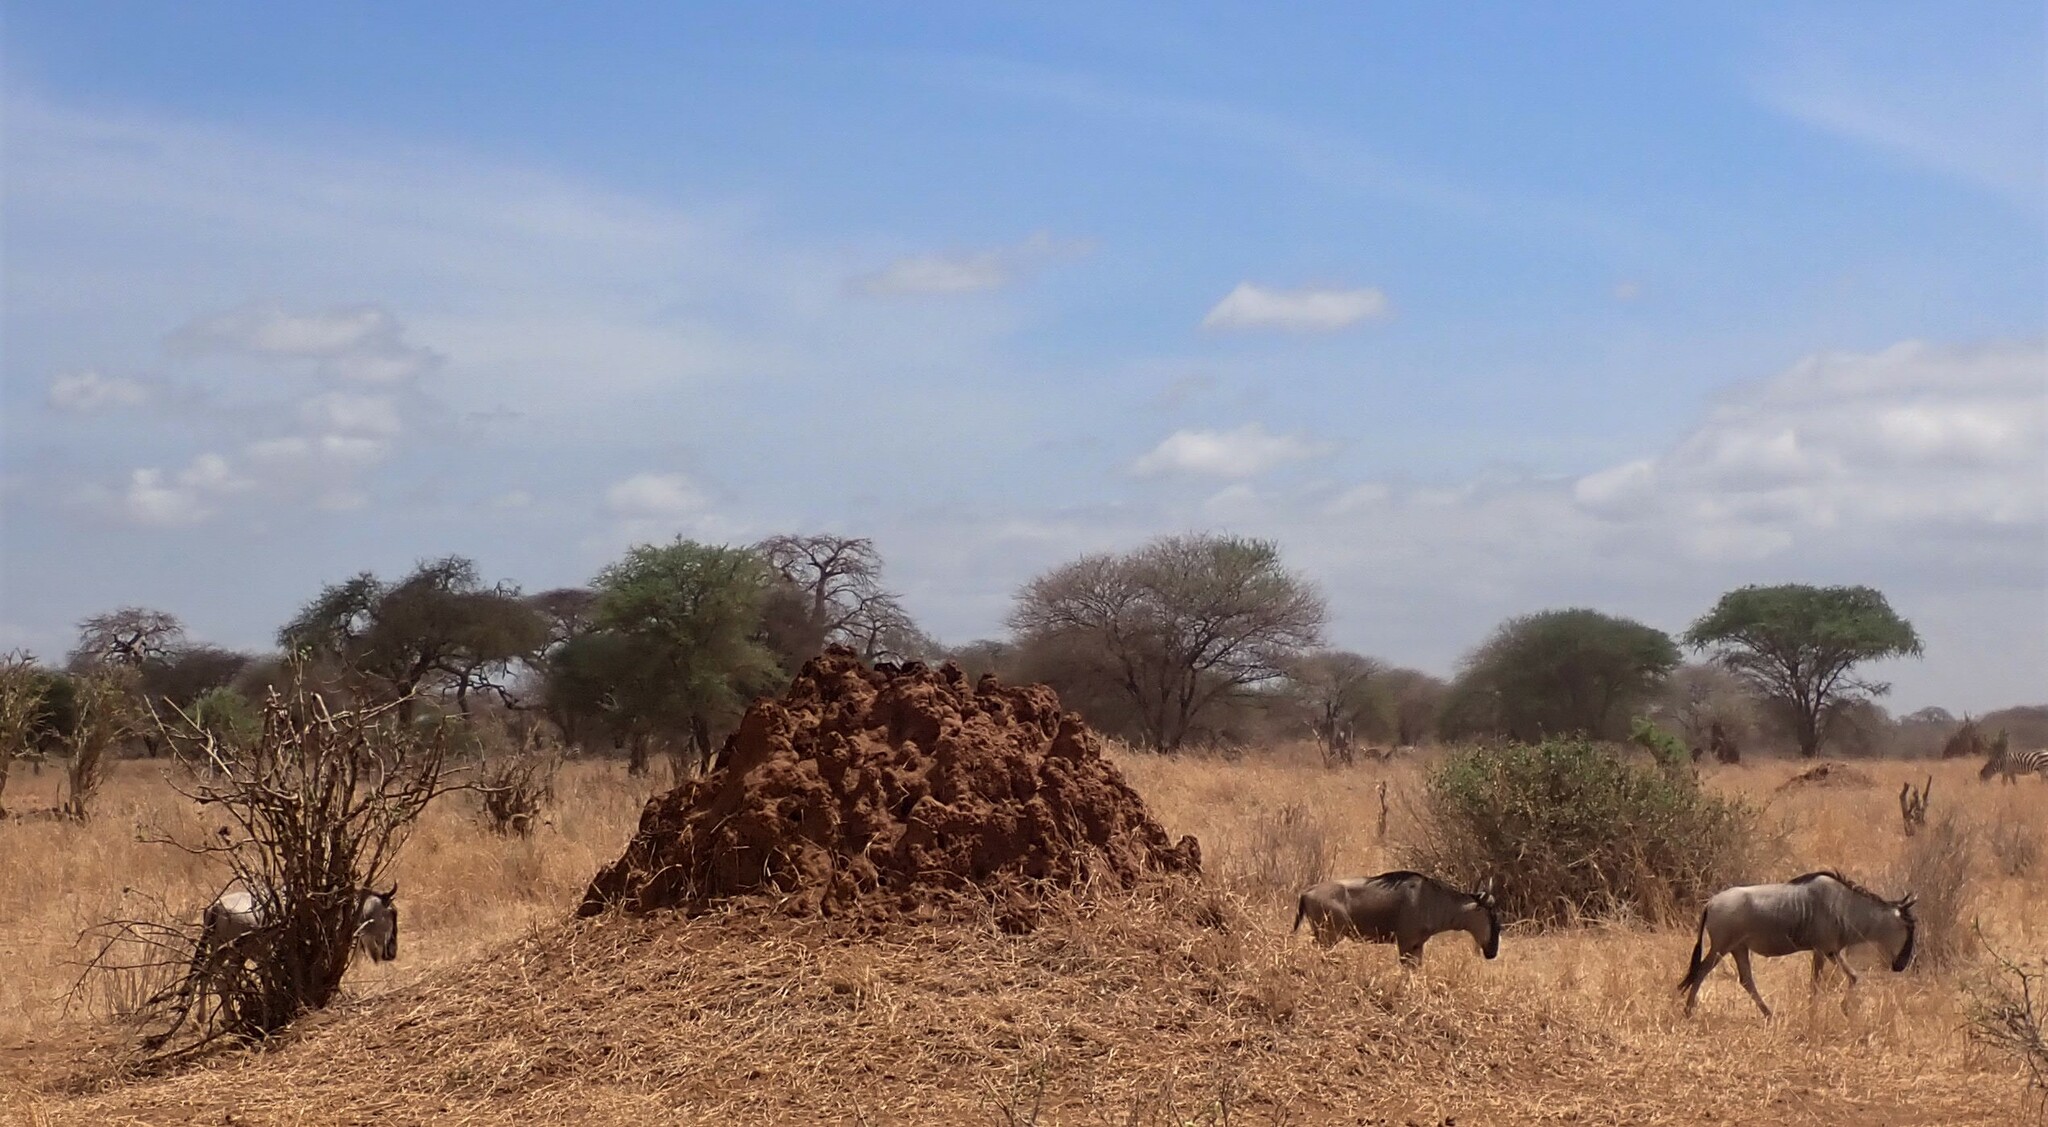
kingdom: Animalia
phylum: Chordata
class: Mammalia
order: Artiodactyla
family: Bovidae
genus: Connochaetes
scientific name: Connochaetes taurinus
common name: Blue wildebeest
